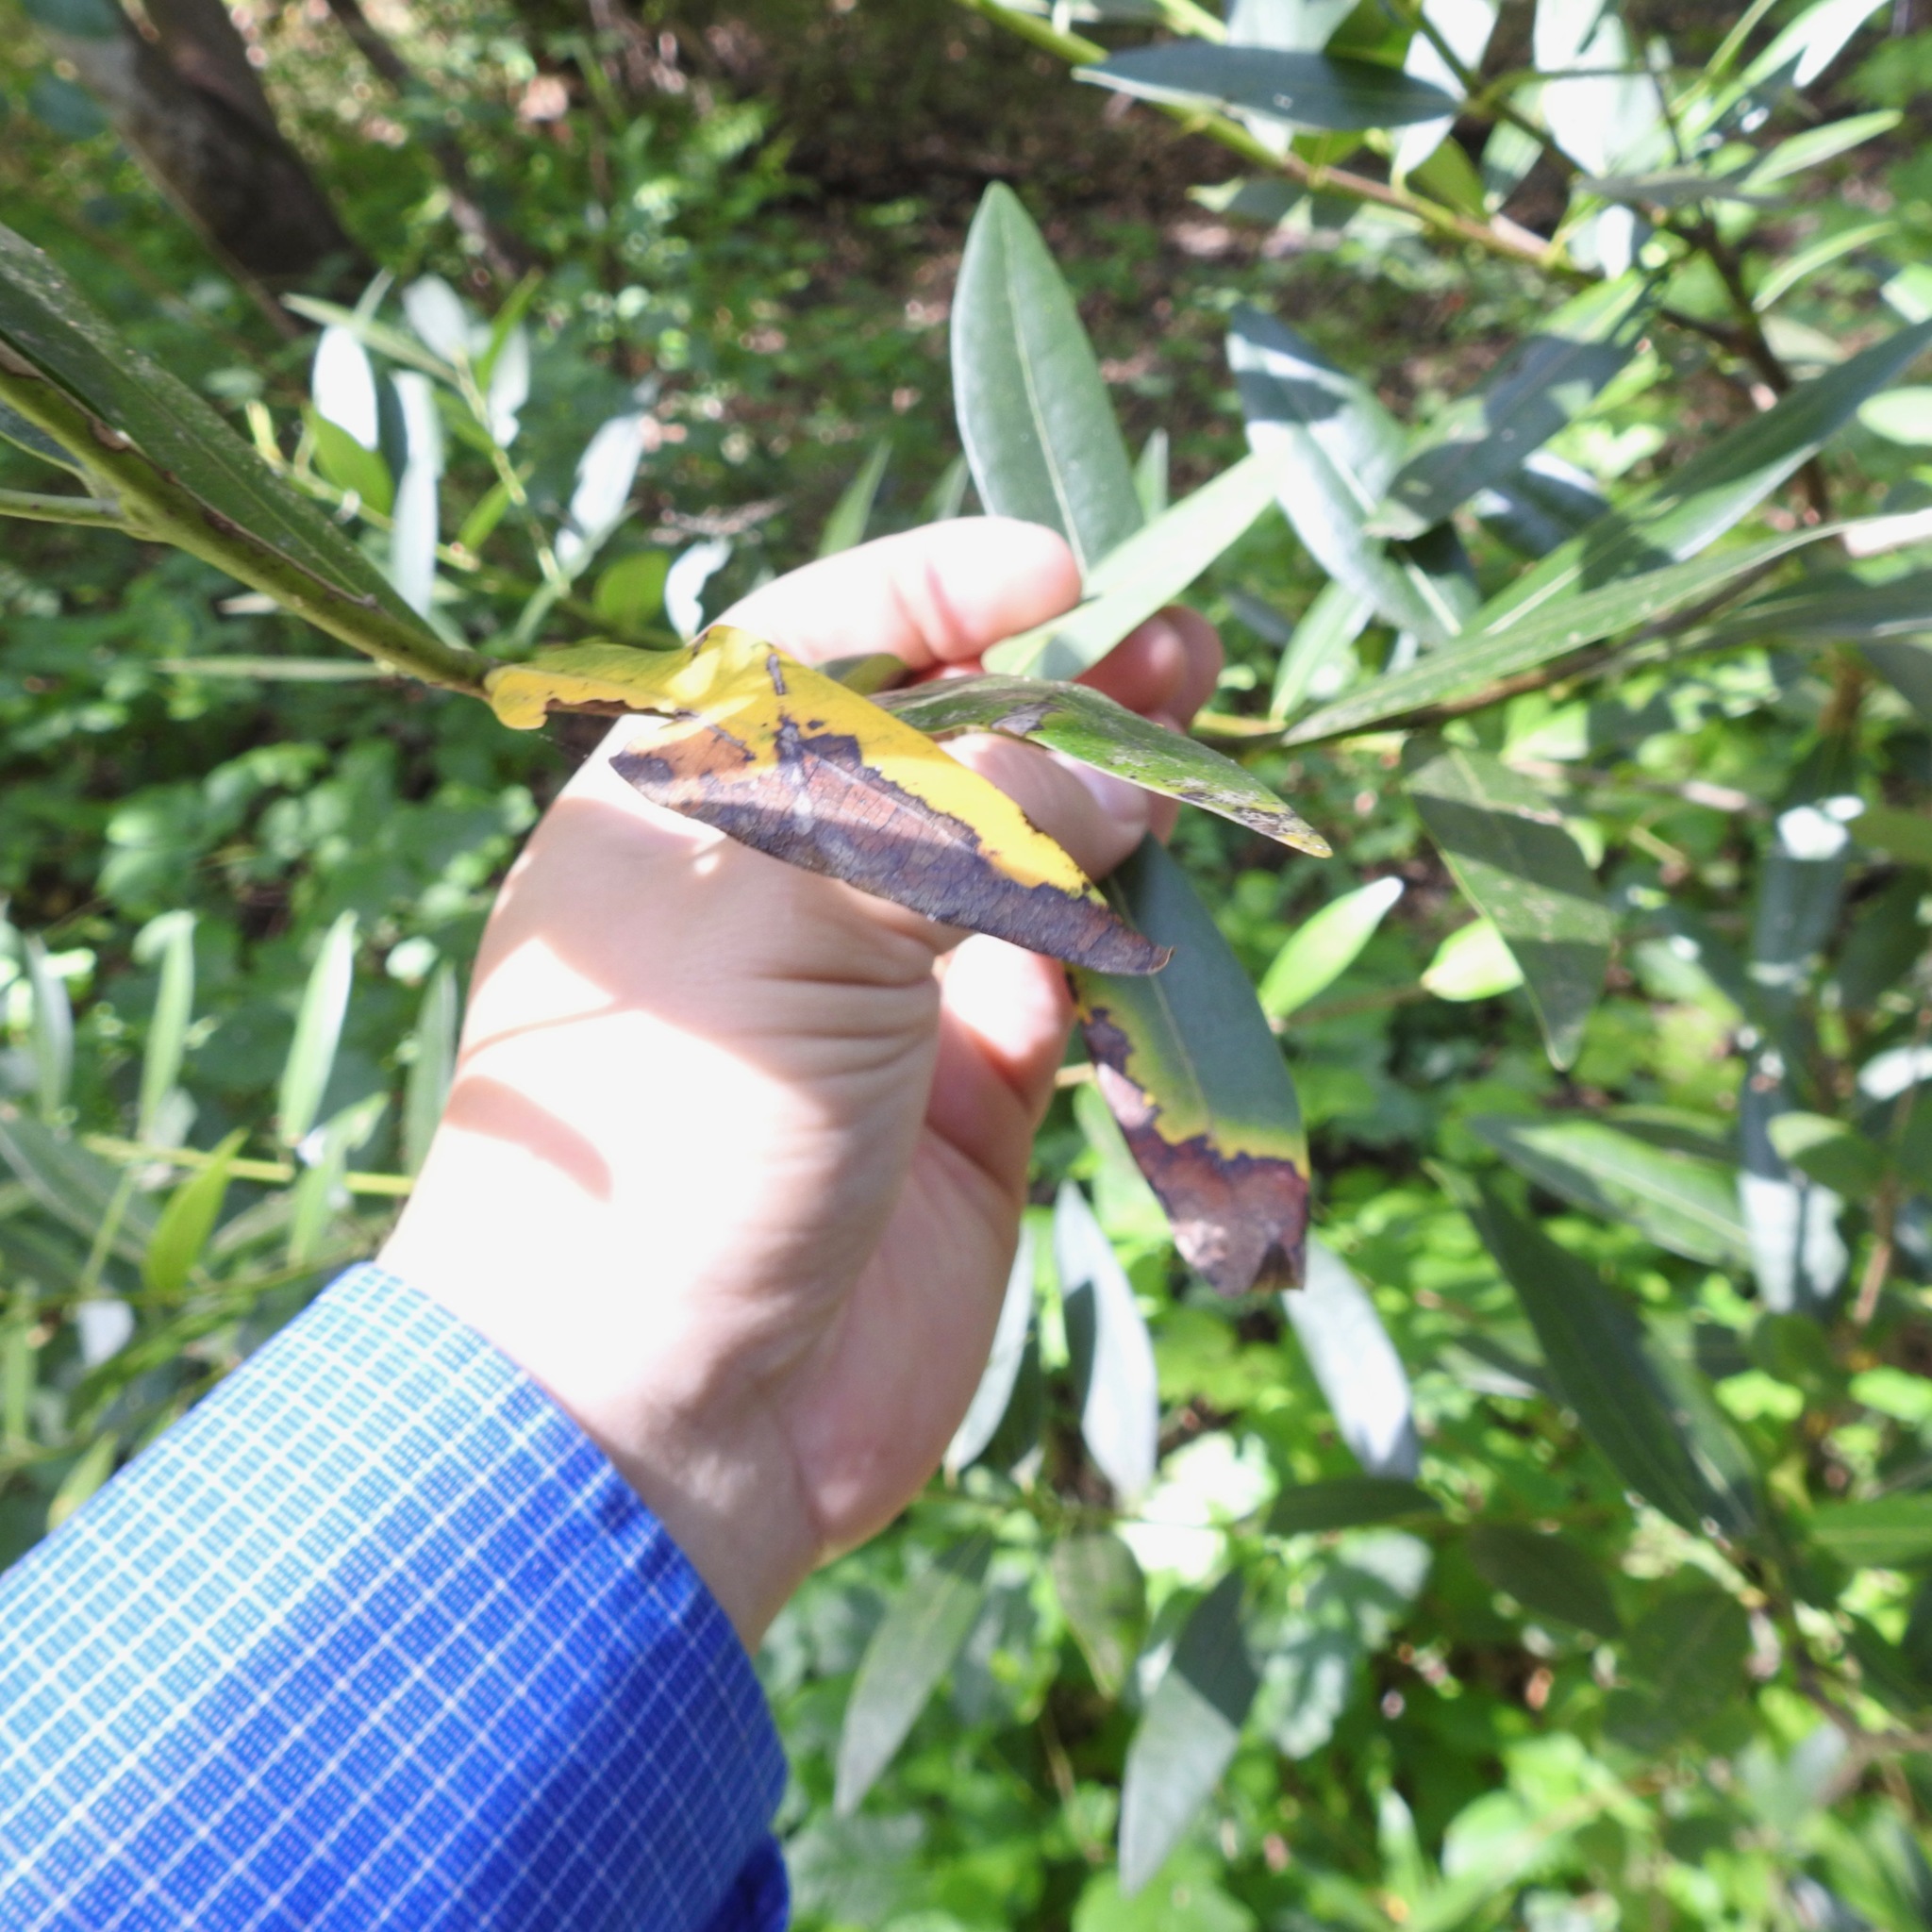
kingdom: Chromista
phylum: Oomycota
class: Peronosporea
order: Peronosporales
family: Peronosporaceae
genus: Phytophthora
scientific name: Phytophthora ramorum
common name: Sudden oak death
